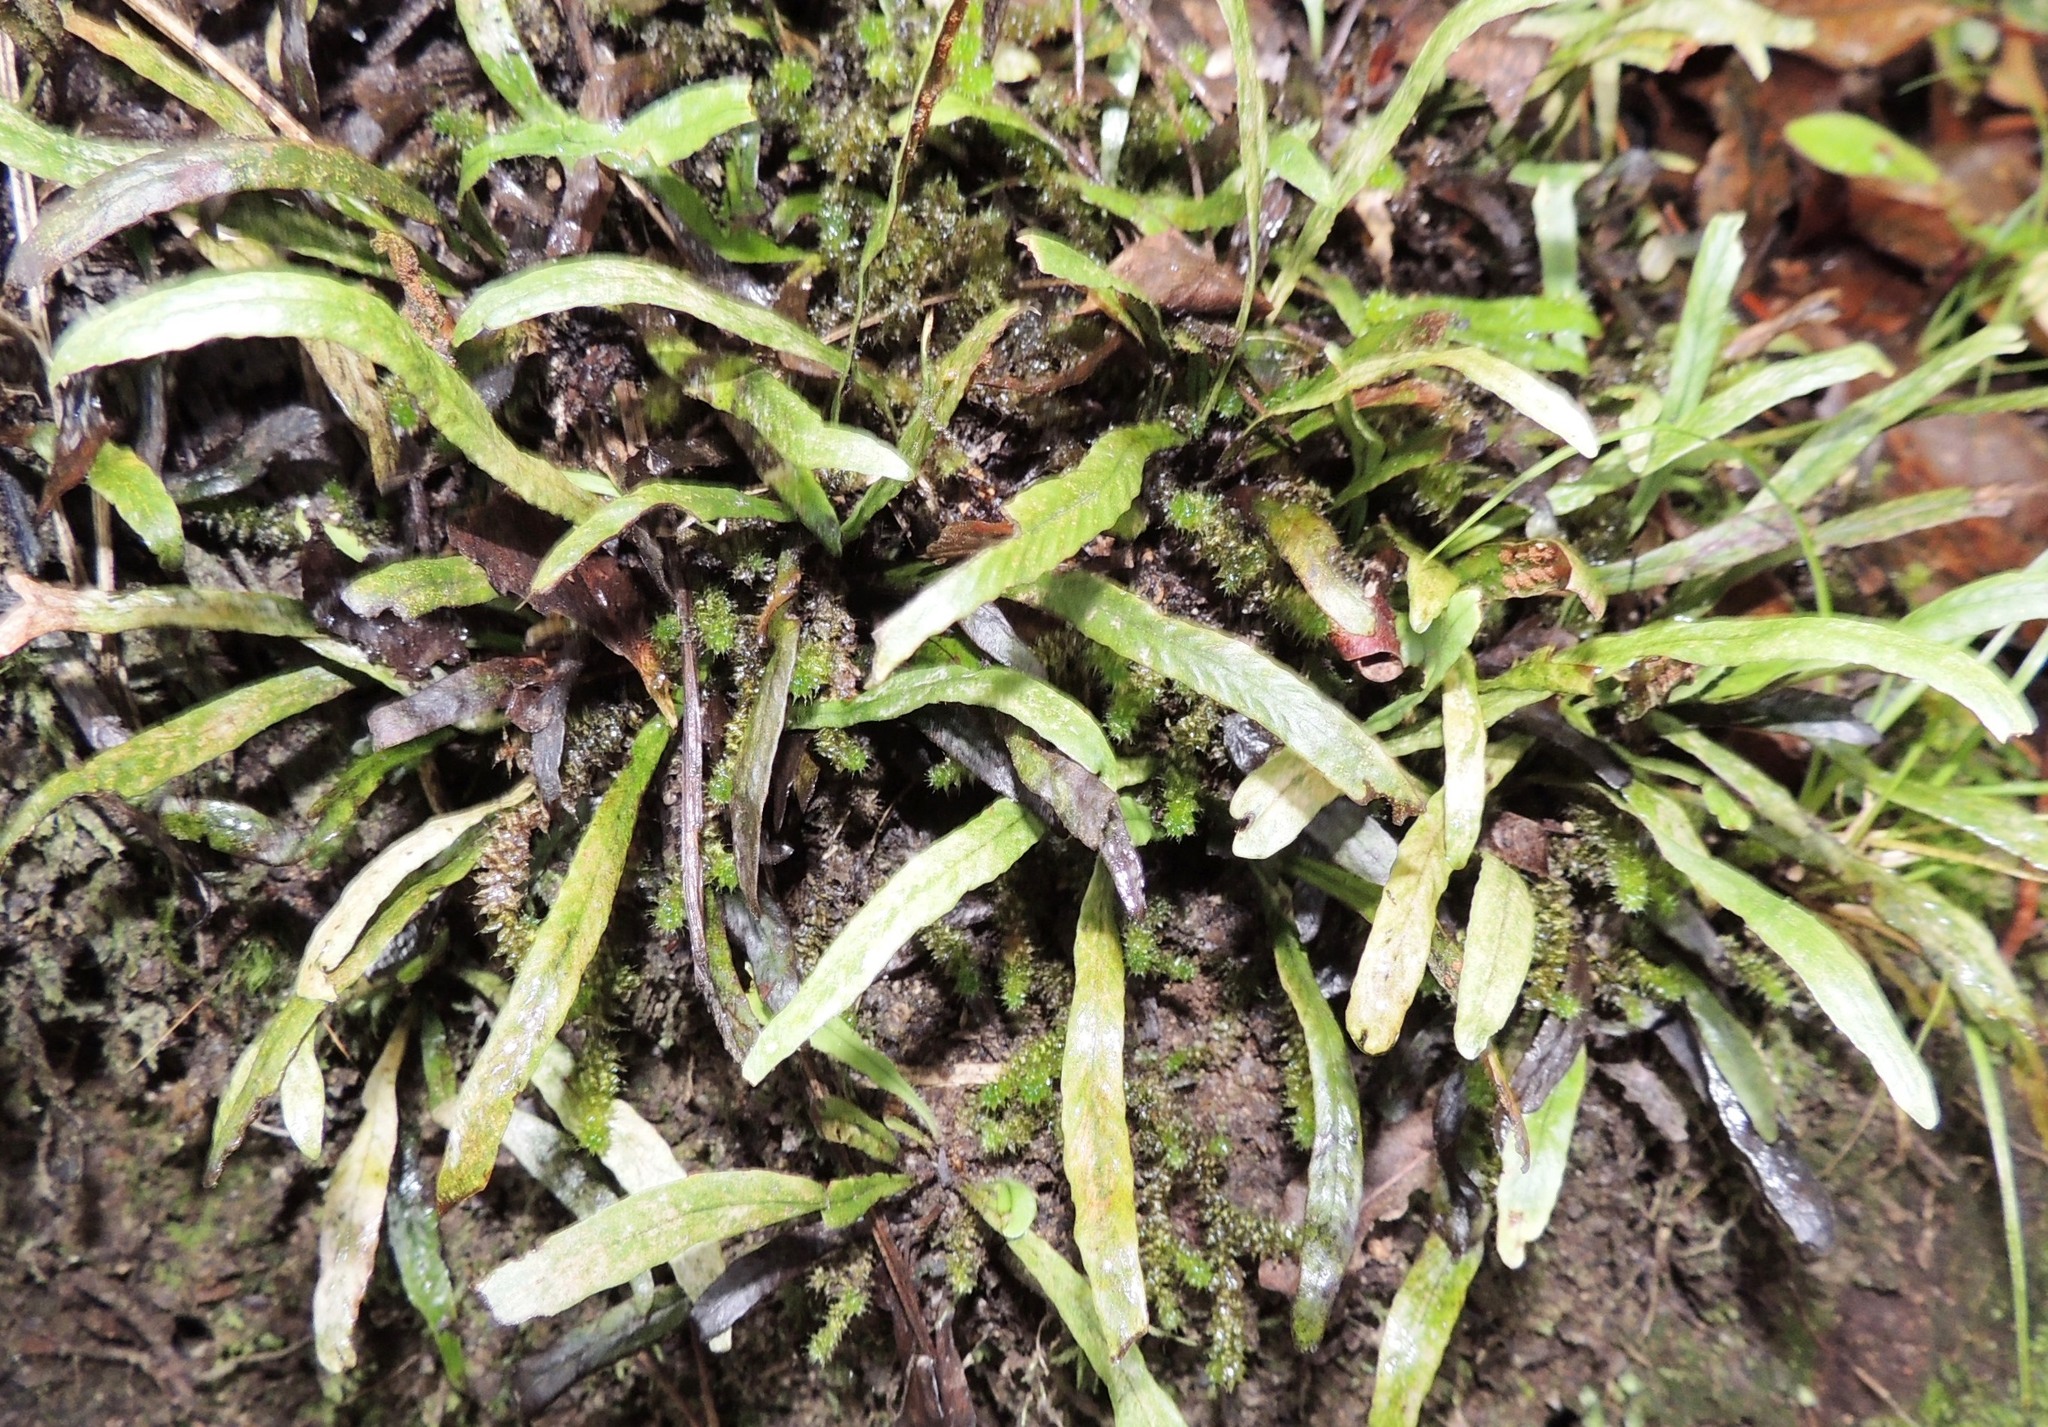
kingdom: Plantae
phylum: Tracheophyta
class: Polypodiopsida
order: Polypodiales
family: Polypodiaceae
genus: Notogrammitis
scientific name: Notogrammitis billardierei
